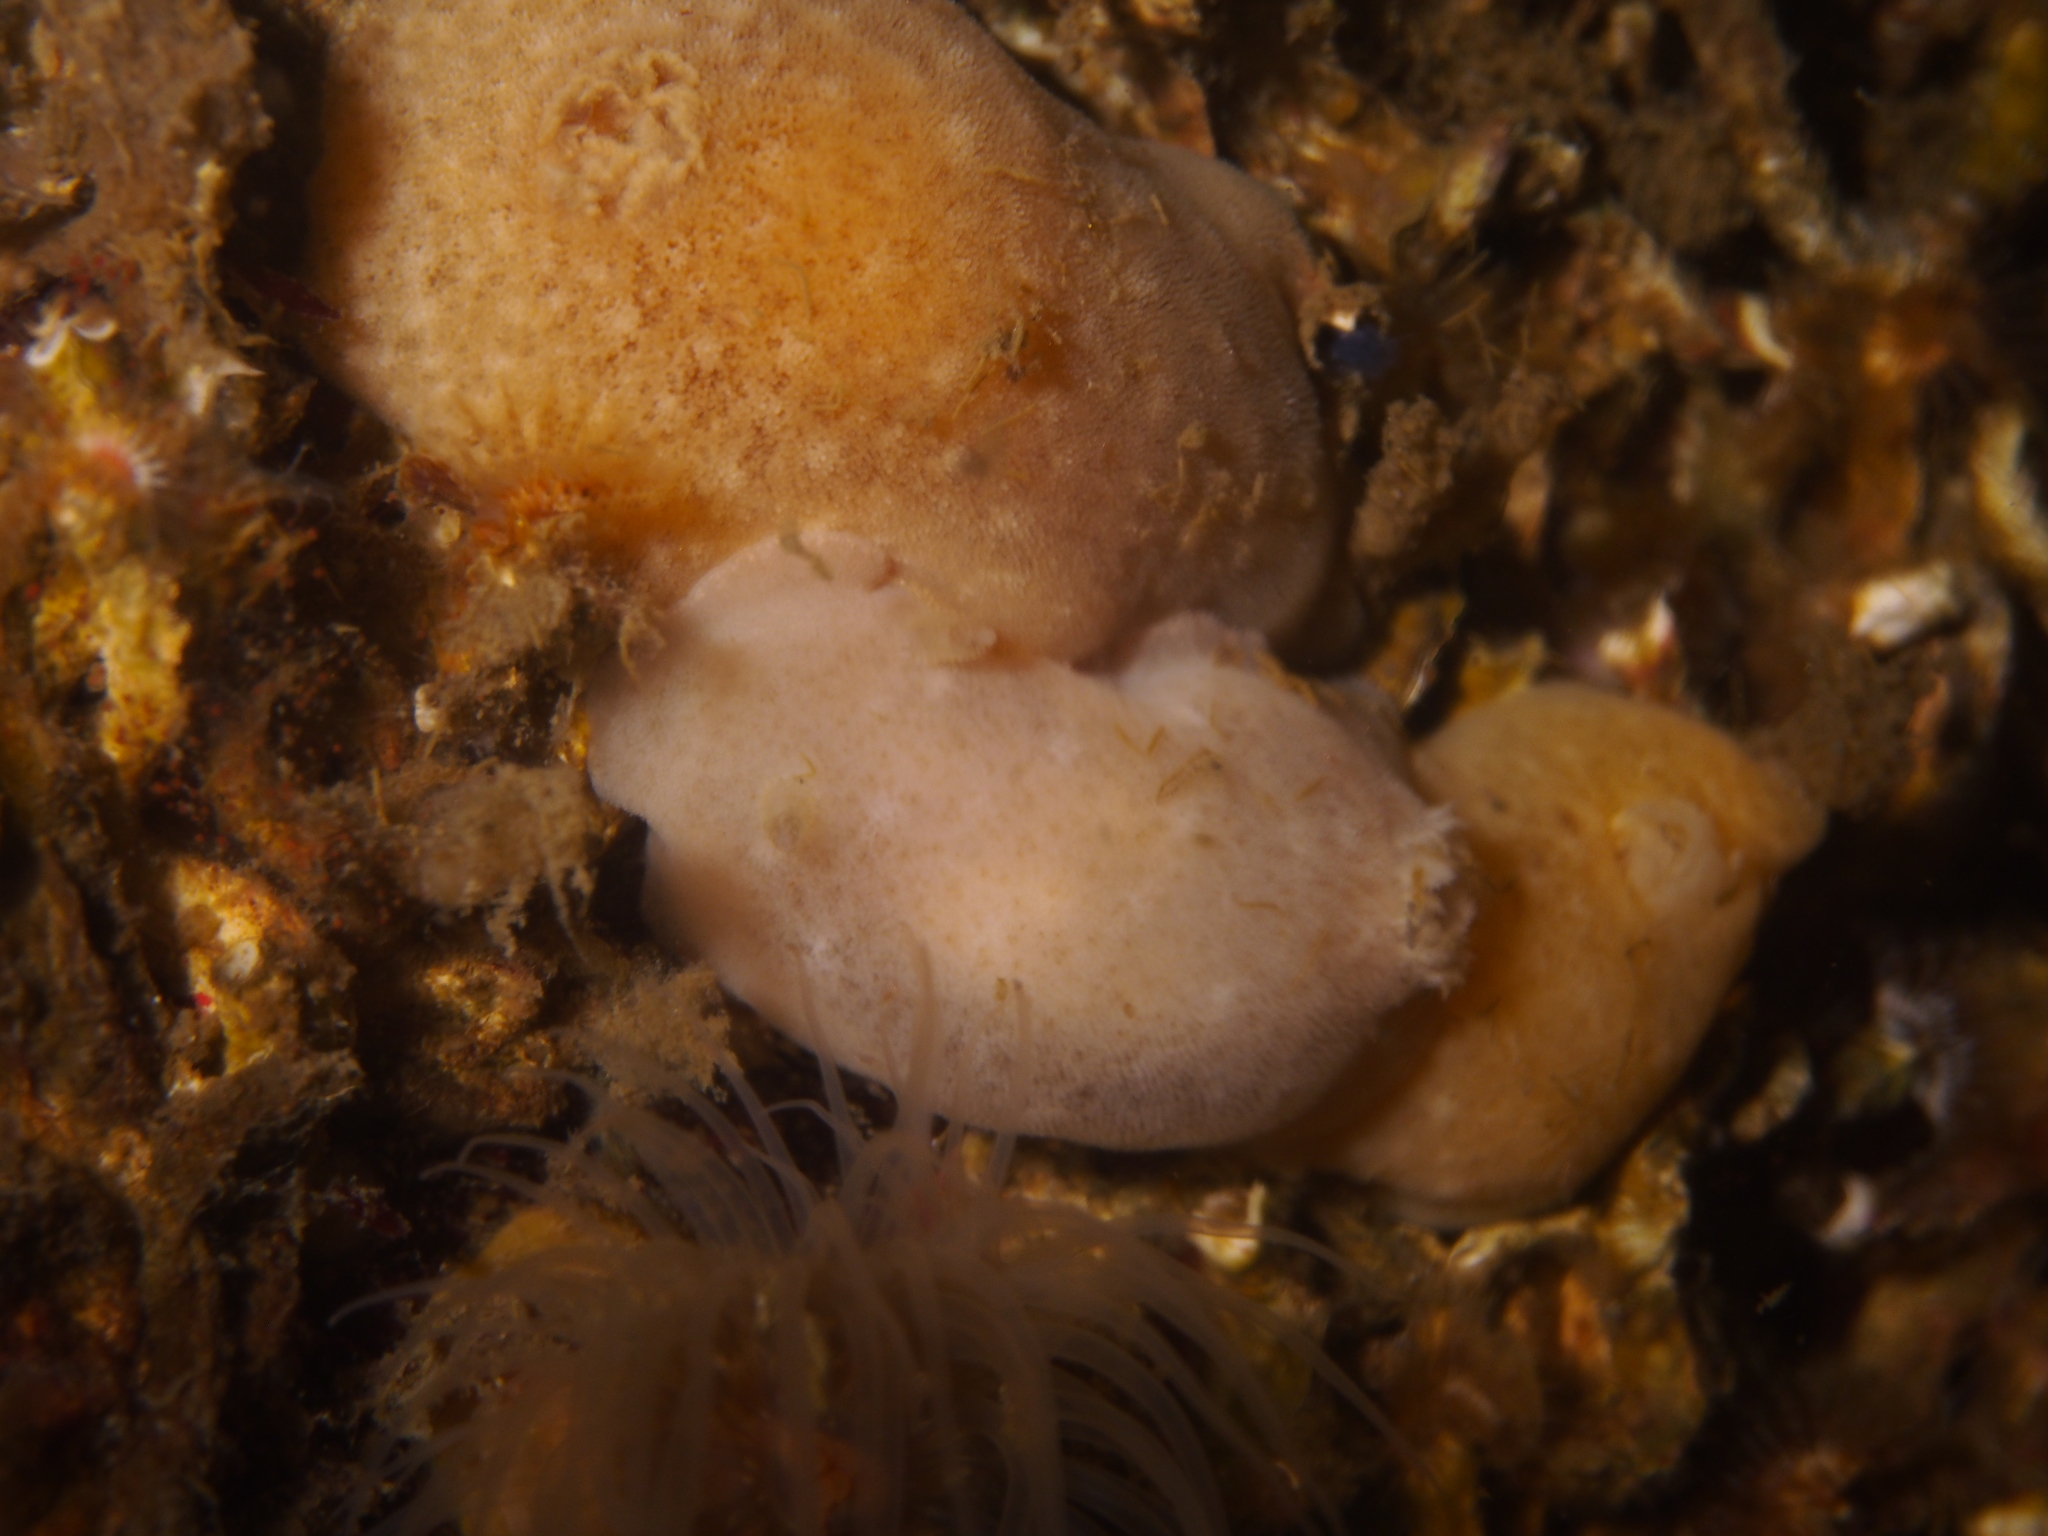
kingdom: Animalia
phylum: Mollusca
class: Gastropoda
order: Nudibranchia
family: Discodorididae
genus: Jorunna
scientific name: Jorunna tomentosa
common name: Grey sea slug
